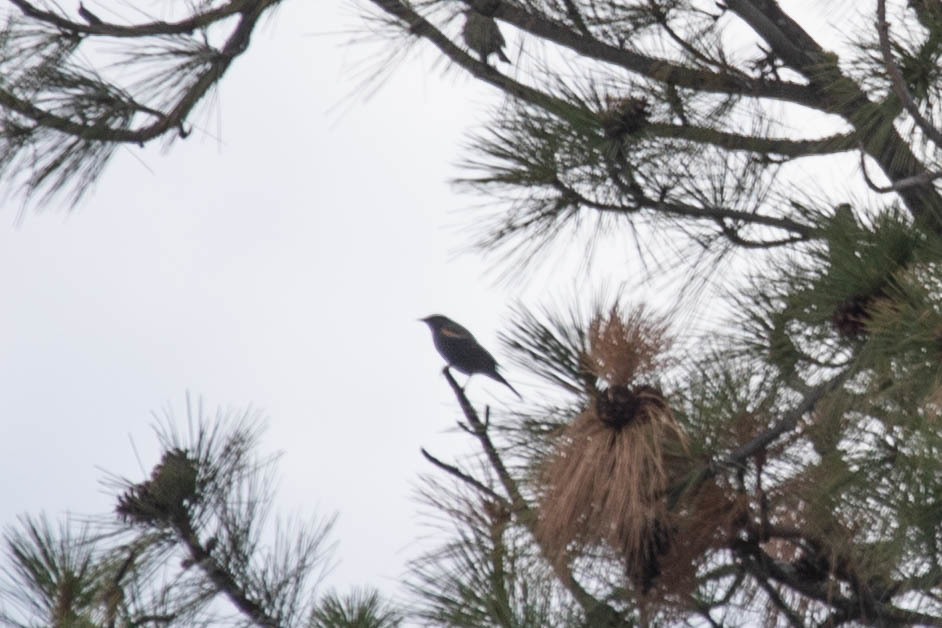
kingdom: Animalia
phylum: Chordata
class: Aves
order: Passeriformes
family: Icteridae
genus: Agelaius
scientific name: Agelaius phoeniceus
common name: Red-winged blackbird
